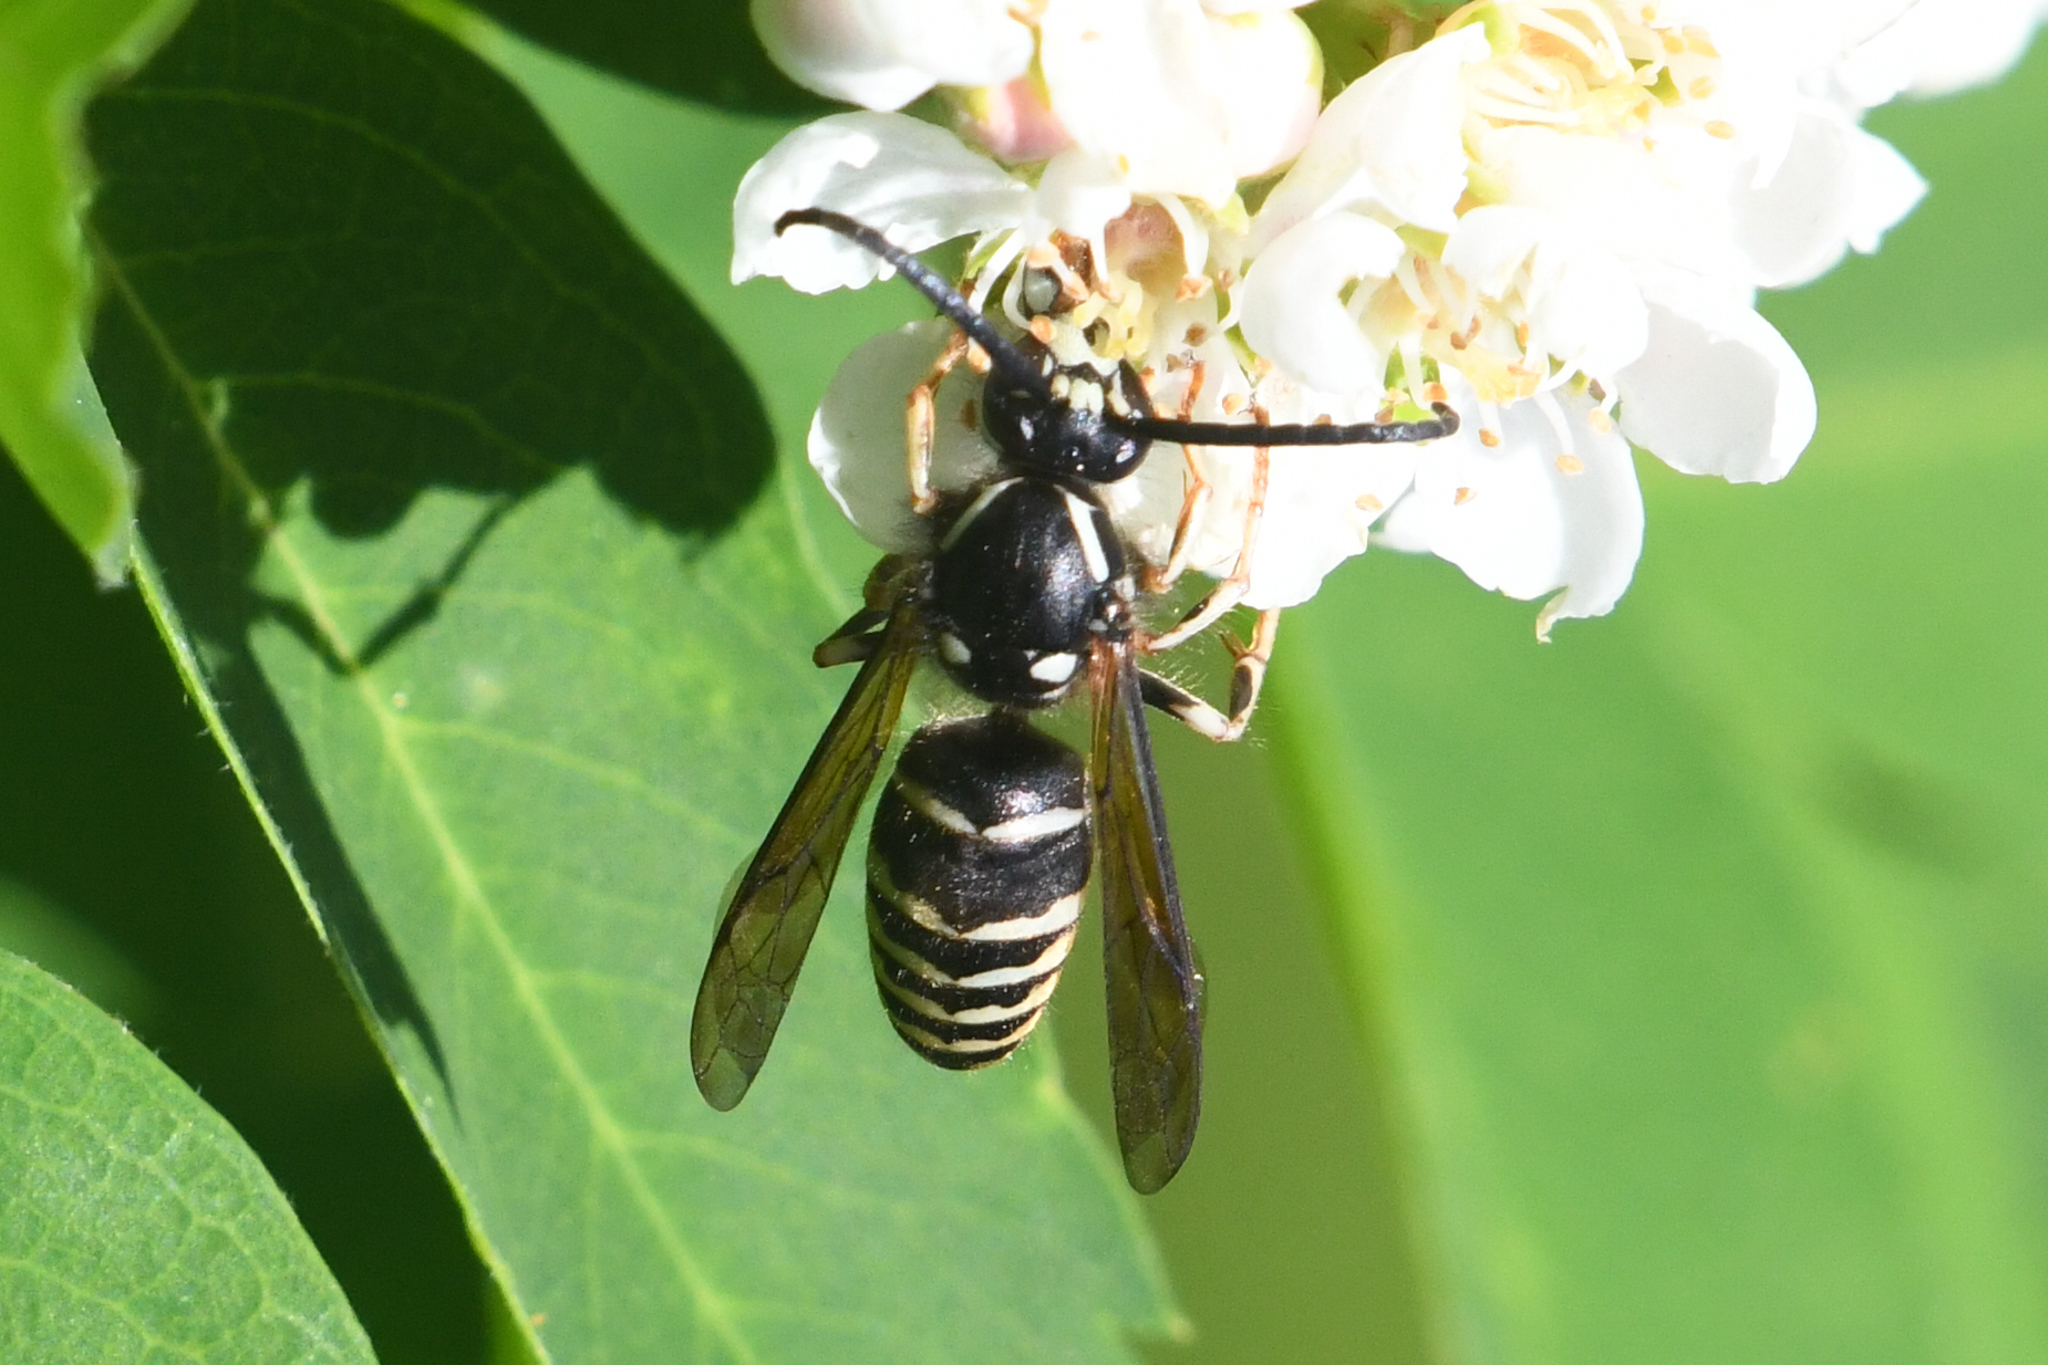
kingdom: Animalia
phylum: Arthropoda
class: Insecta
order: Hymenoptera
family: Vespidae
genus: Dolichovespula
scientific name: Dolichovespula adulterina
